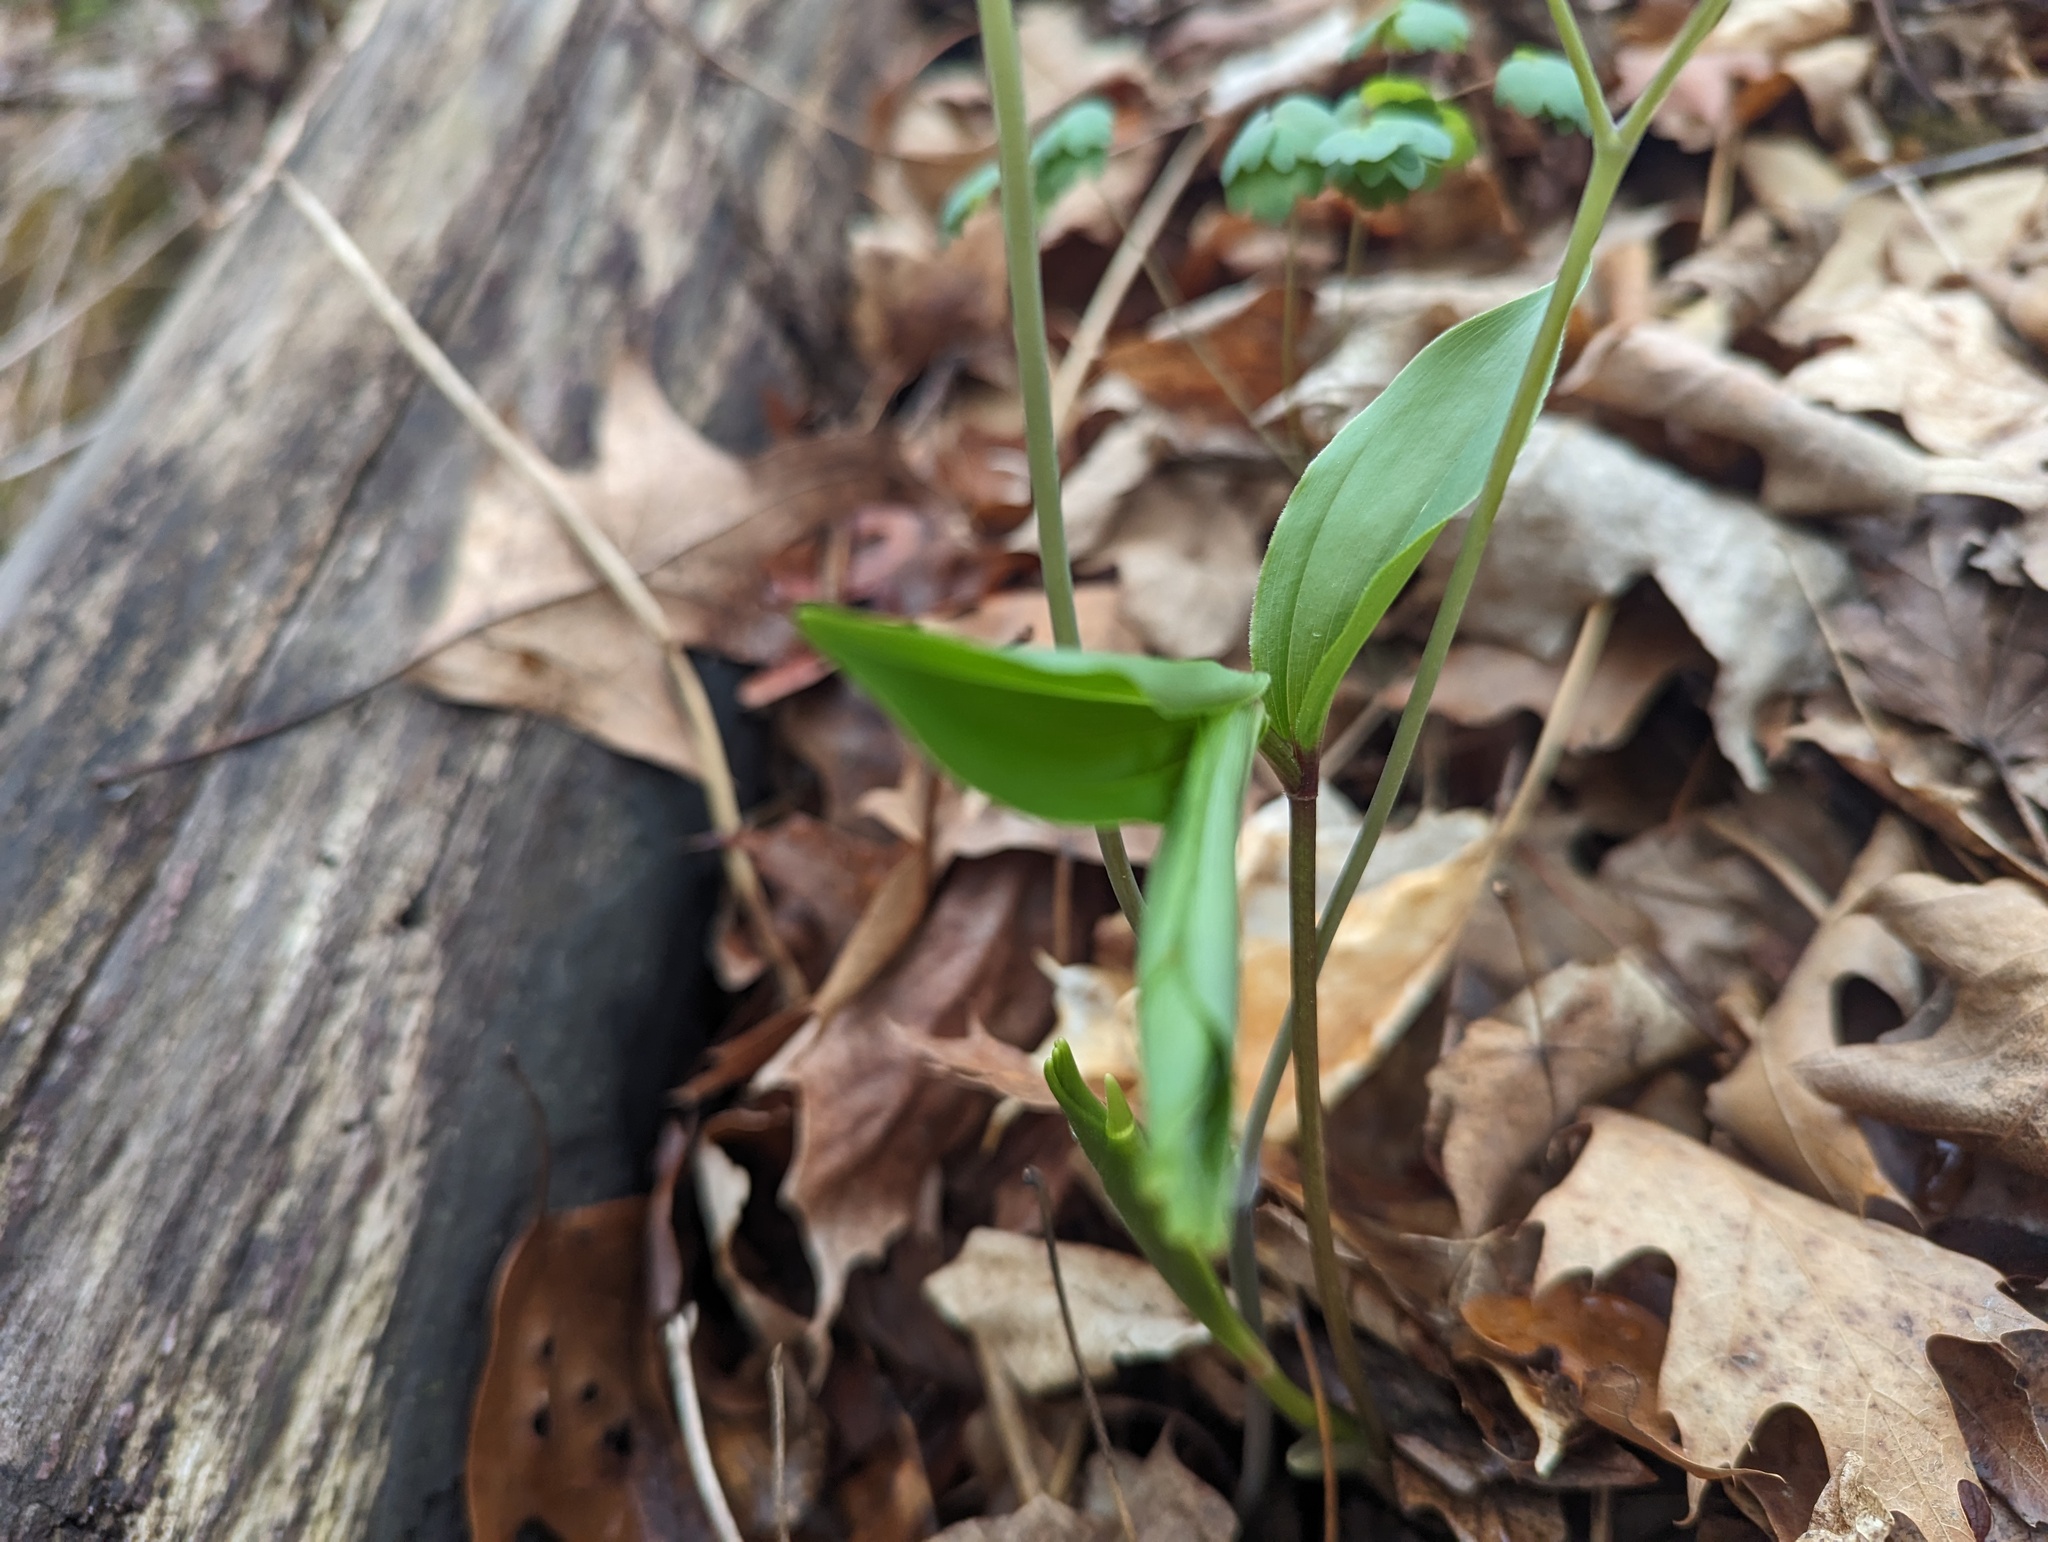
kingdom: Plantae
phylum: Tracheophyta
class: Liliopsida
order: Asparagales
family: Asparagaceae
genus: Maianthemum
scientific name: Maianthemum racemosum
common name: False spikenard
